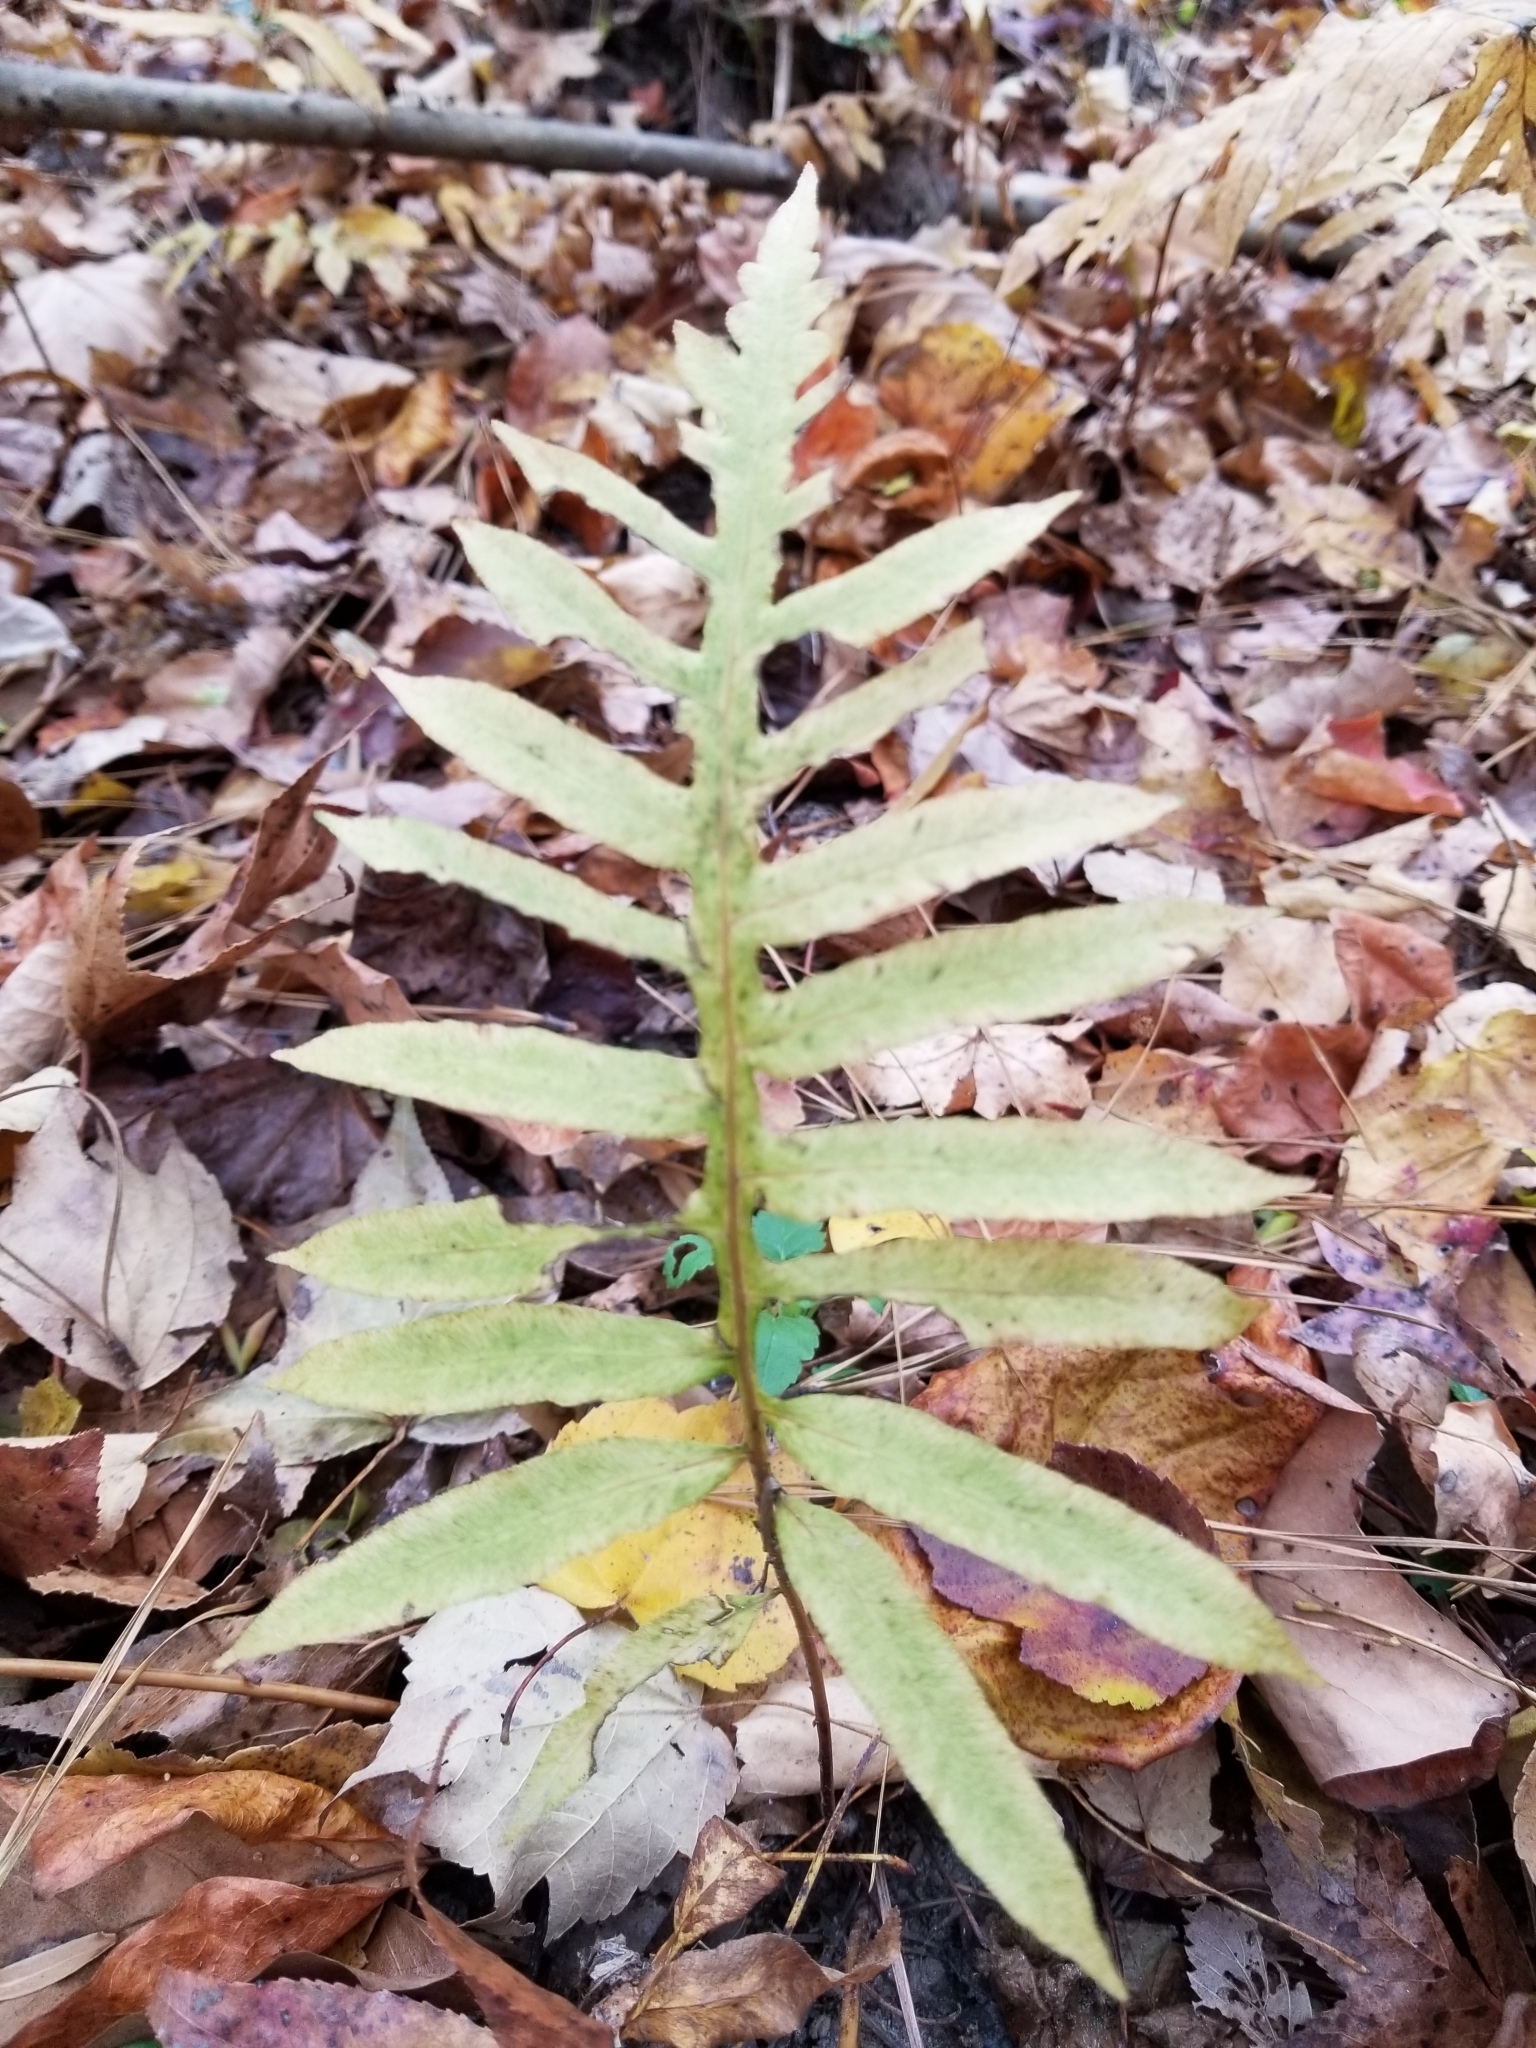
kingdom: Plantae
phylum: Tracheophyta
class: Polypodiopsida
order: Polypodiales
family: Blechnaceae
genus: Lorinseria
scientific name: Lorinseria areolata
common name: Dwarf chain fern
